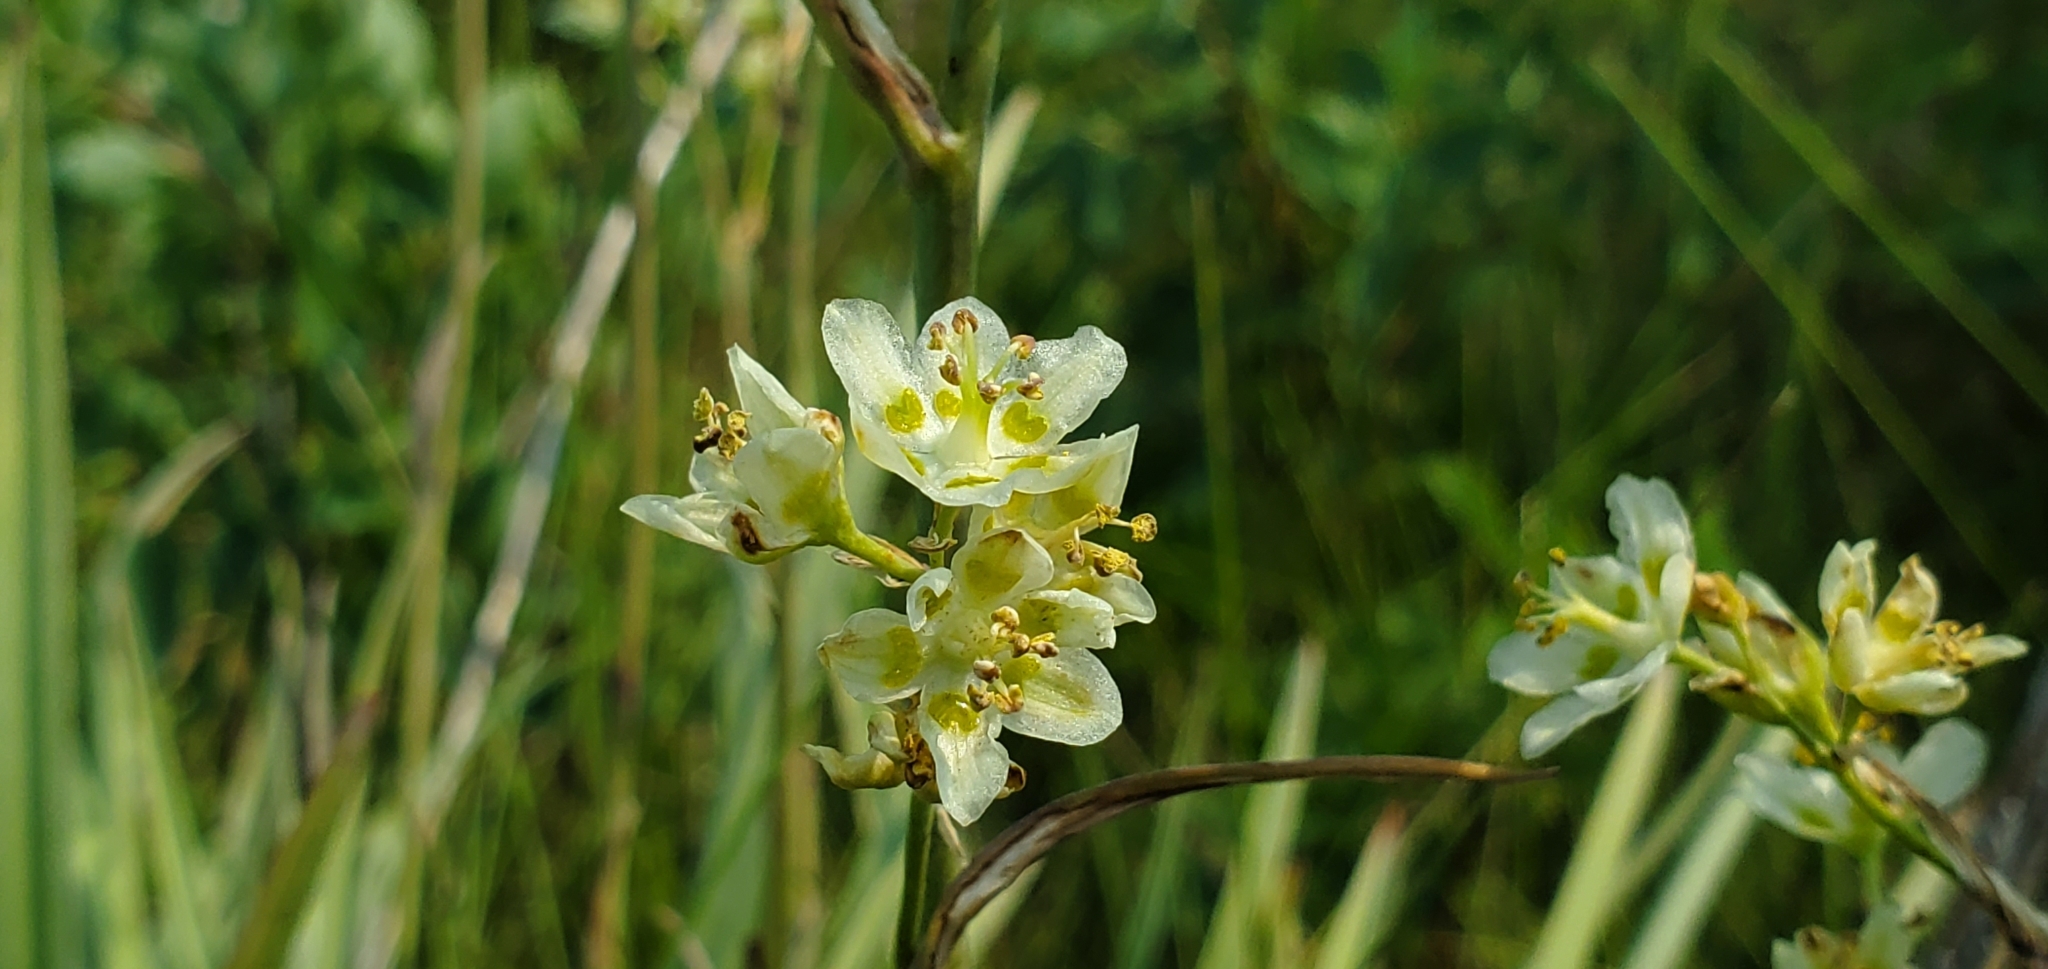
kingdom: Plantae
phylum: Tracheophyta
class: Liliopsida
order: Liliales
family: Melanthiaceae
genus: Anticlea
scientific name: Anticlea elegans
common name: Mountain death camas
